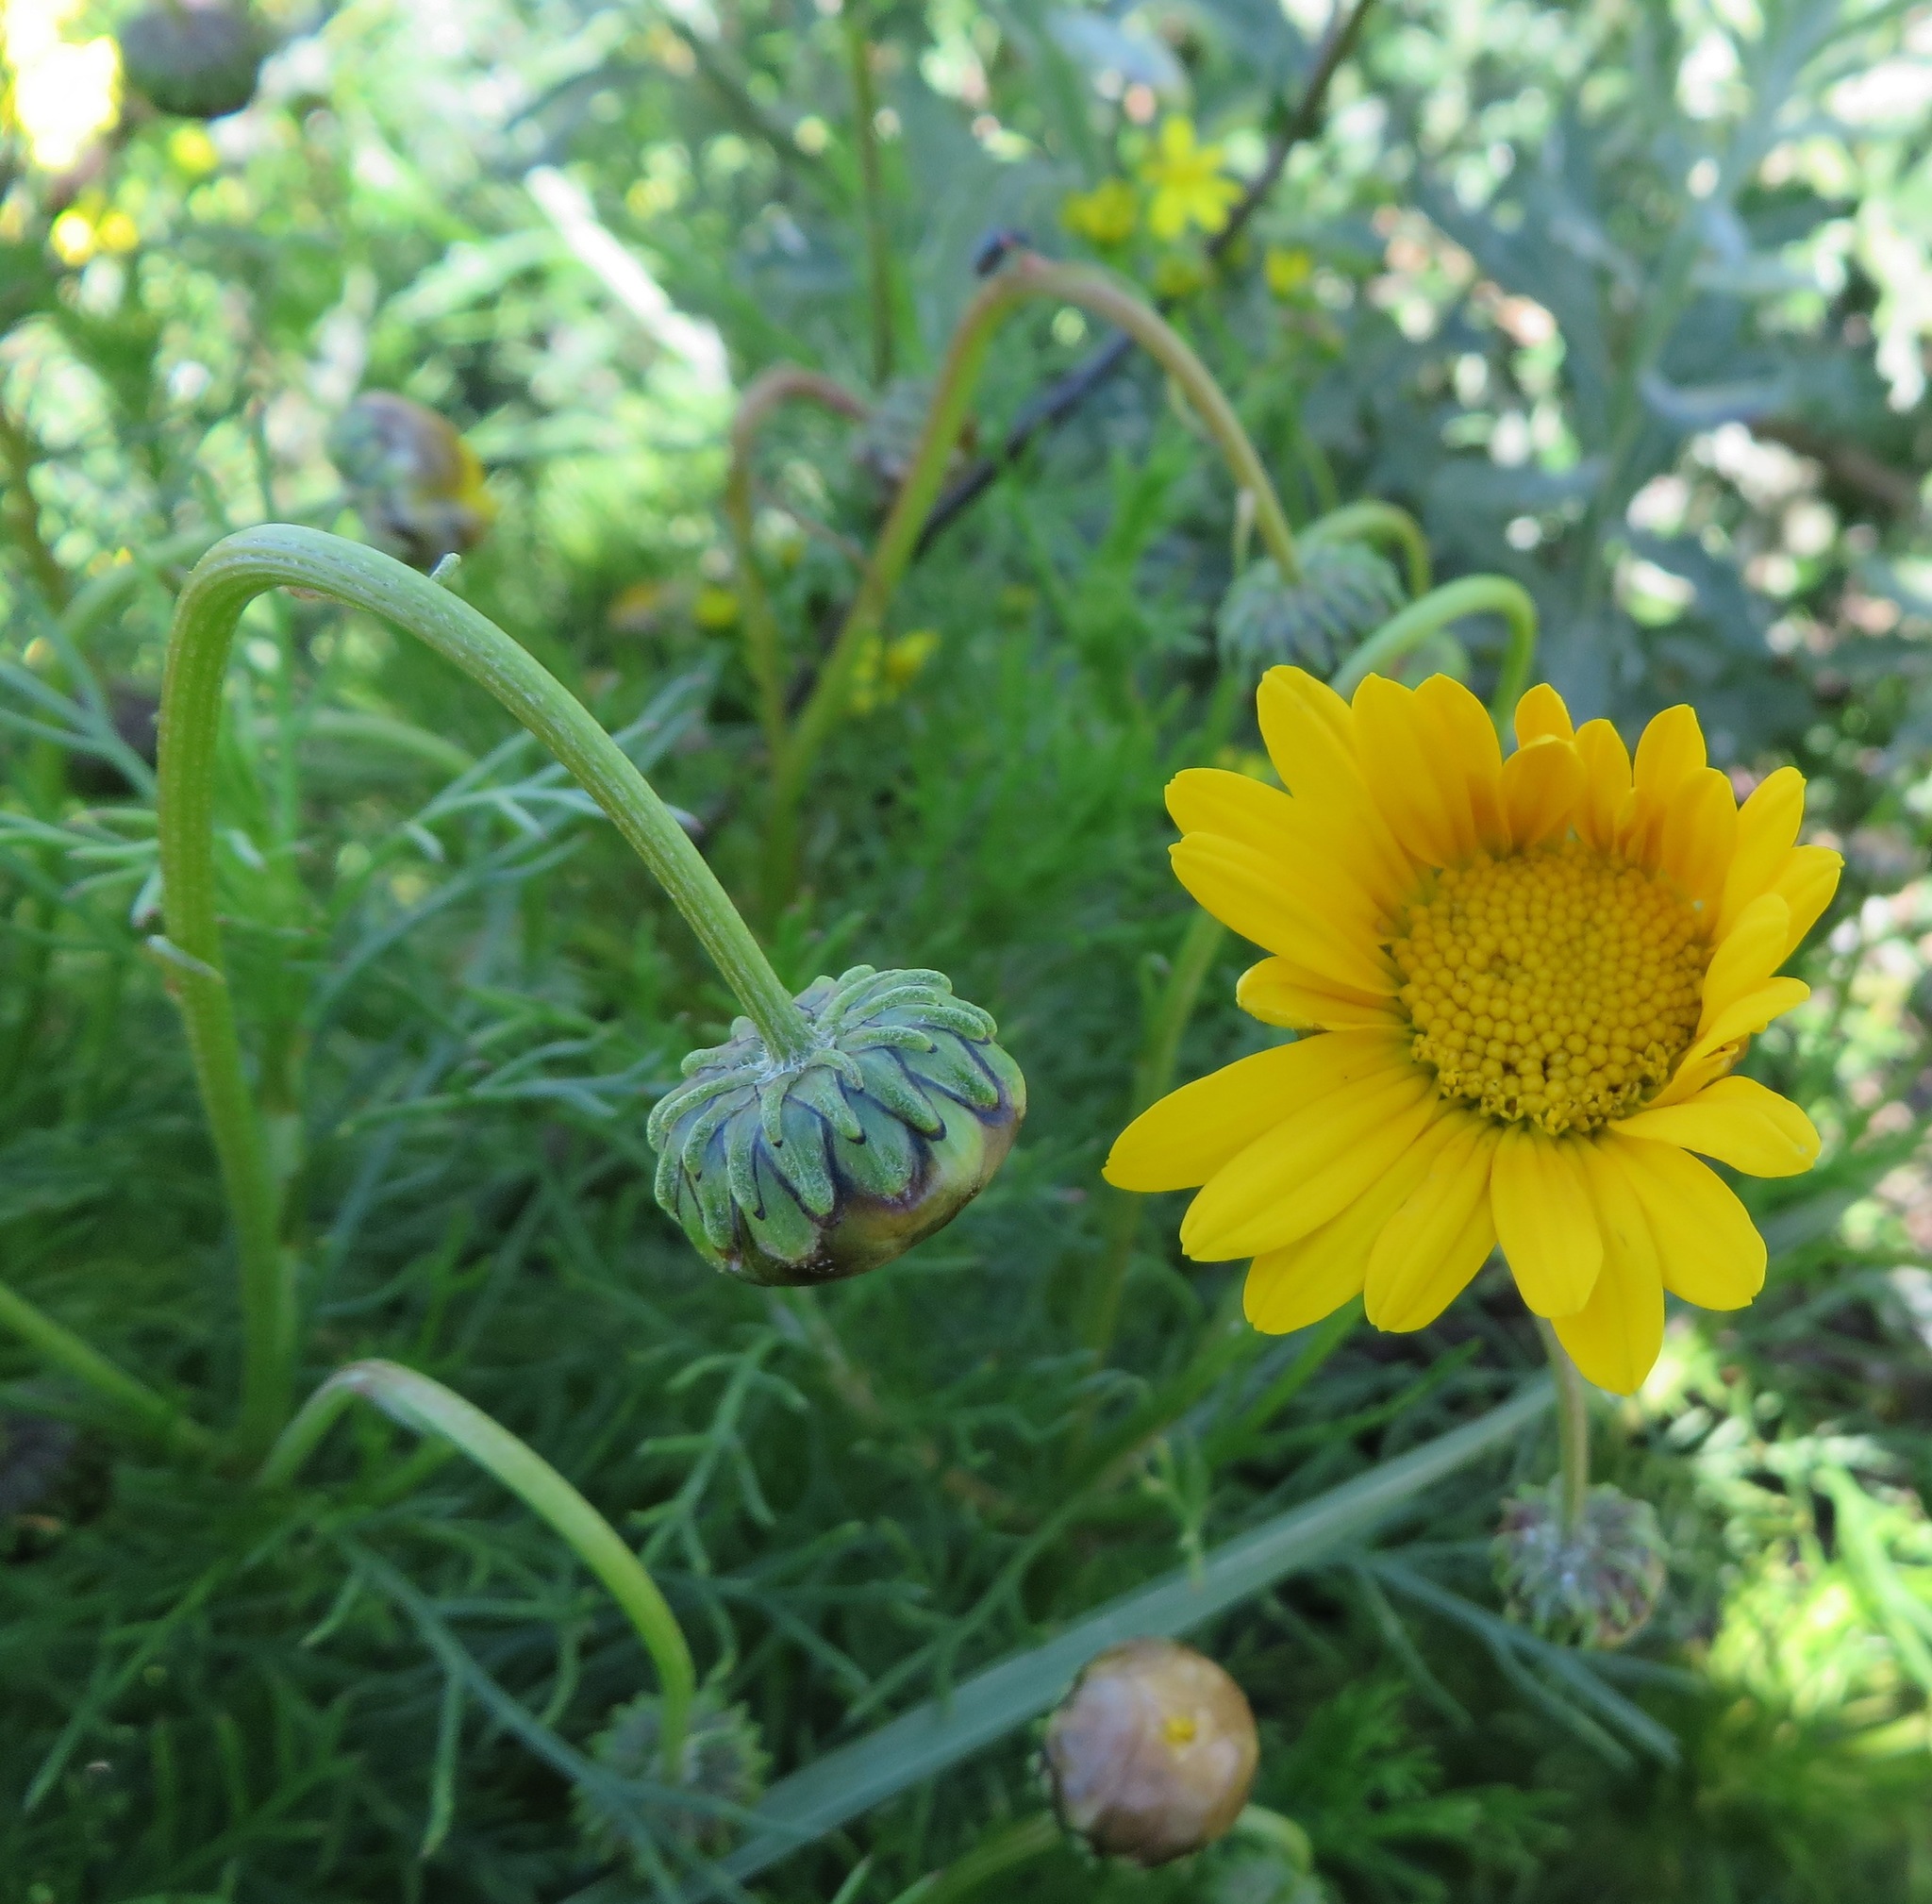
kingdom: Plantae
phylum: Tracheophyta
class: Magnoliopsida
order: Asterales
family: Asteraceae
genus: Ursinia
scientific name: Ursinia paleacea
